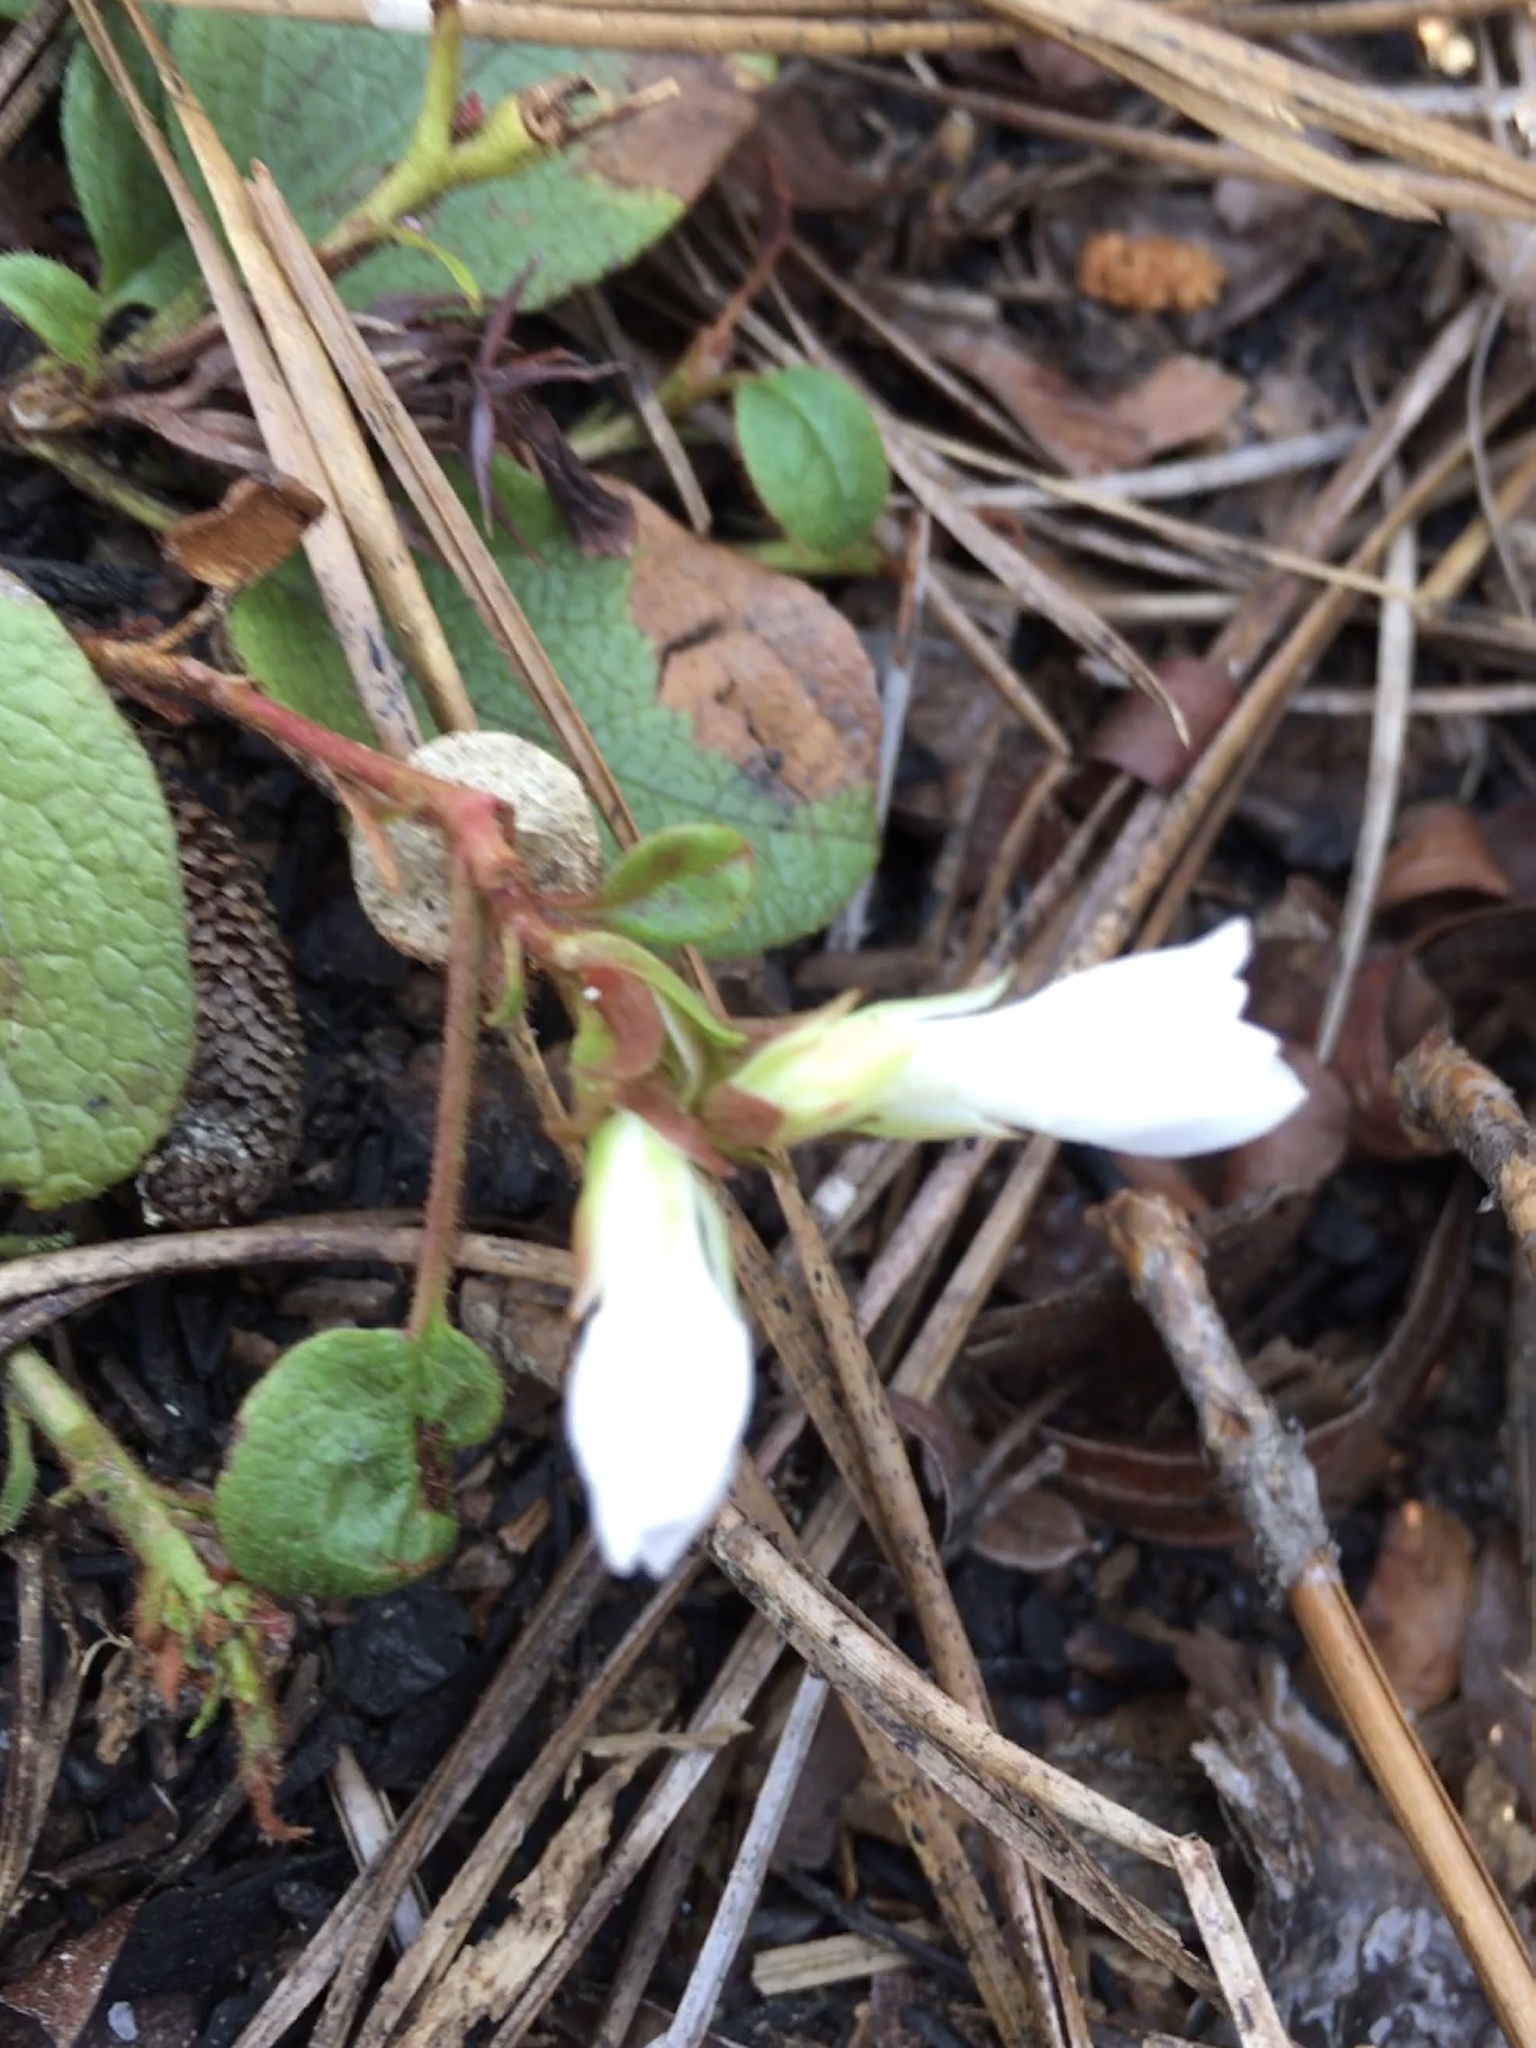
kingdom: Plantae
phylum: Tracheophyta
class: Magnoliopsida
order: Ericales
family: Ericaceae
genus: Epigaea
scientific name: Epigaea repens
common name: Gravelroot
